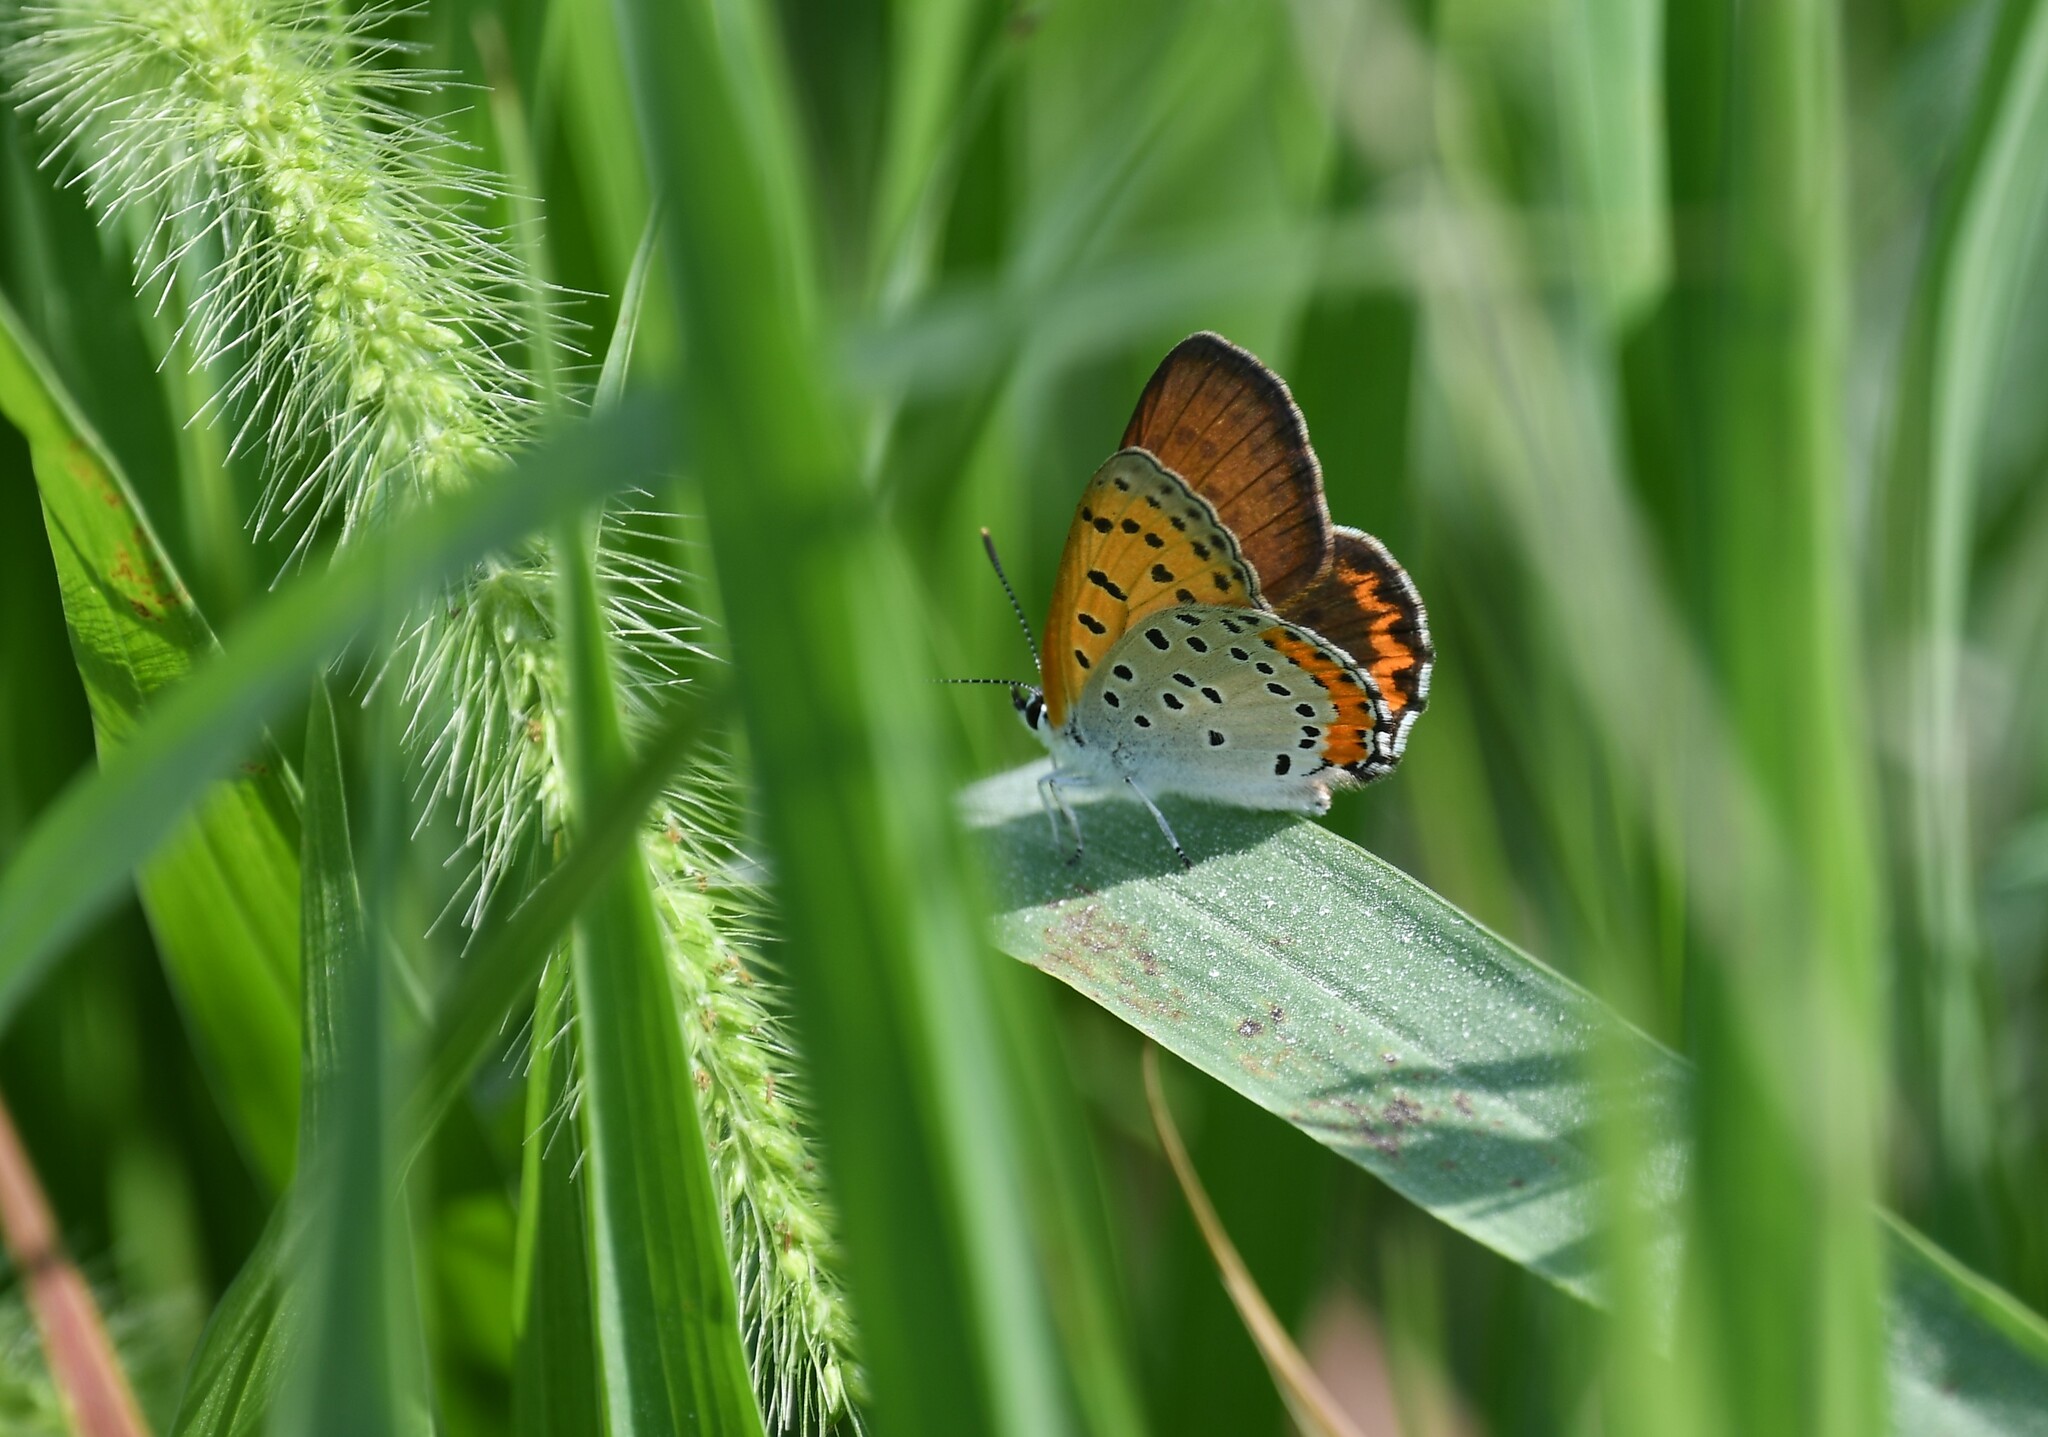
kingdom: Animalia
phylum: Arthropoda
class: Insecta
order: Lepidoptera
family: Lycaenidae
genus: Tharsalea
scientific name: Tharsalea hyllus
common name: Bronze copper
